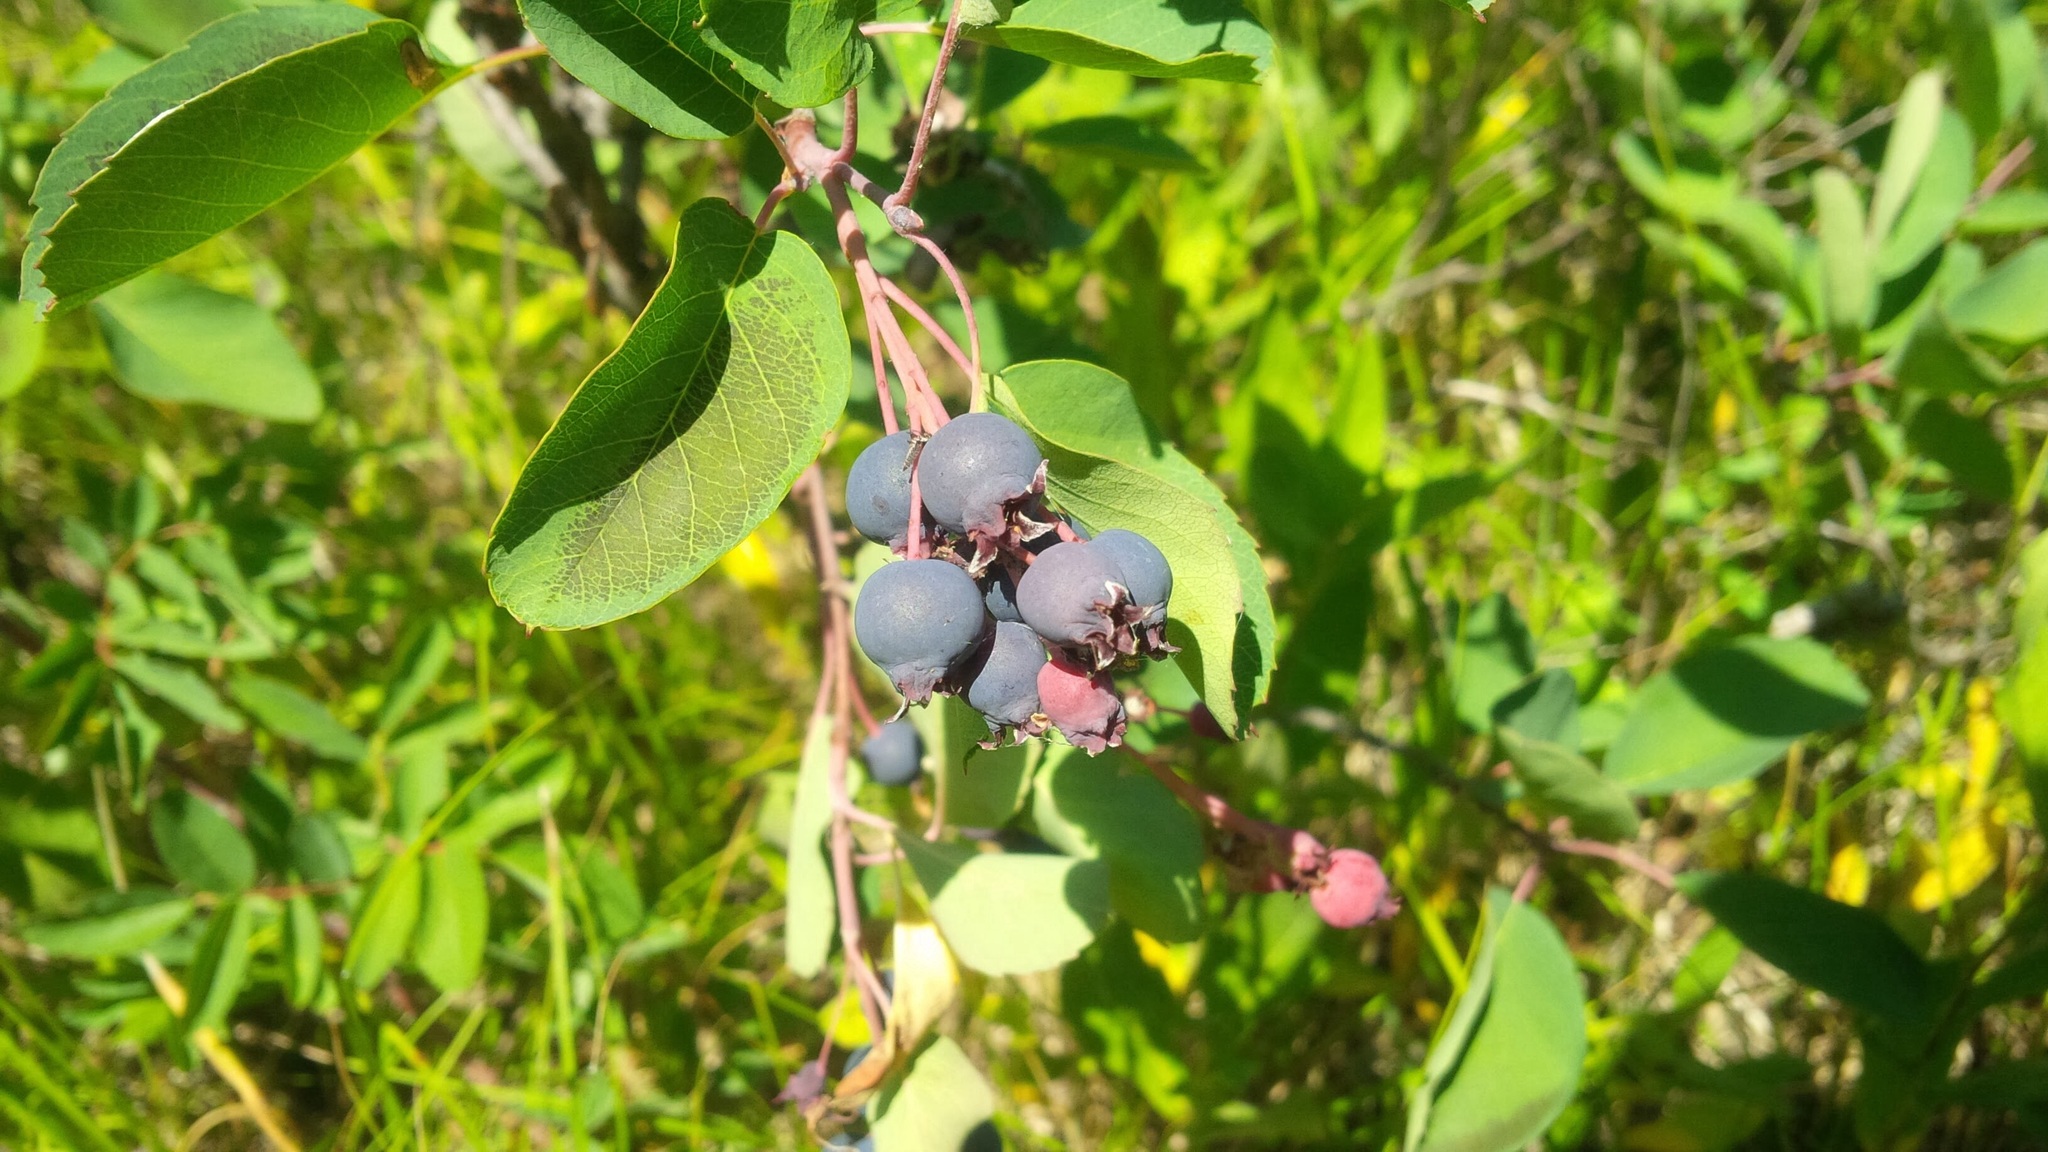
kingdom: Plantae
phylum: Tracheophyta
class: Magnoliopsida
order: Rosales
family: Rosaceae
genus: Amelanchier
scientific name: Amelanchier alnifolia
